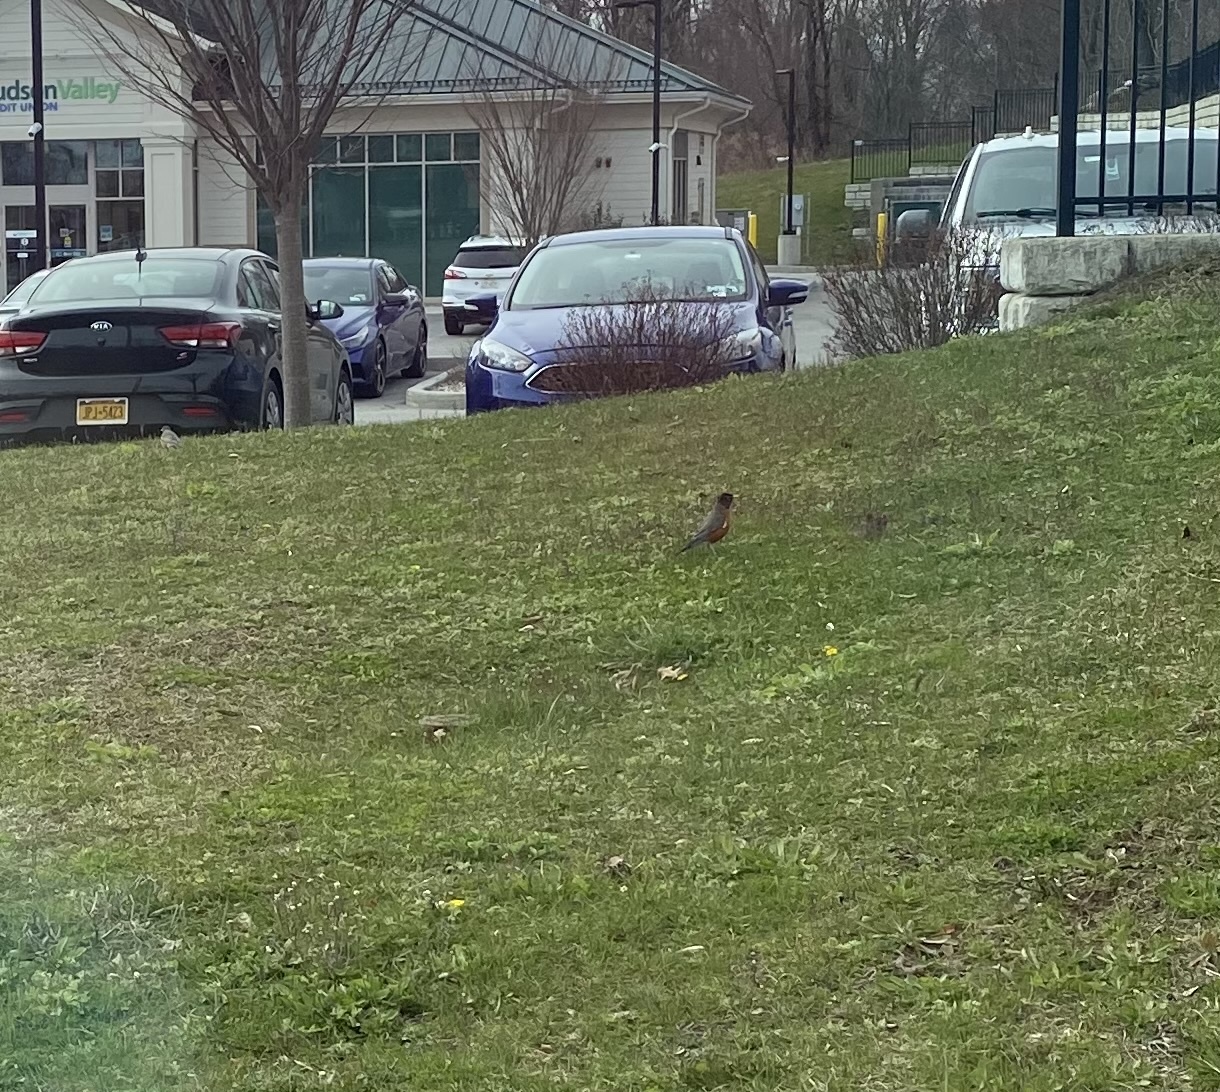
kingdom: Animalia
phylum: Chordata
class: Aves
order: Passeriformes
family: Turdidae
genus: Turdus
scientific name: Turdus migratorius
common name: American robin
